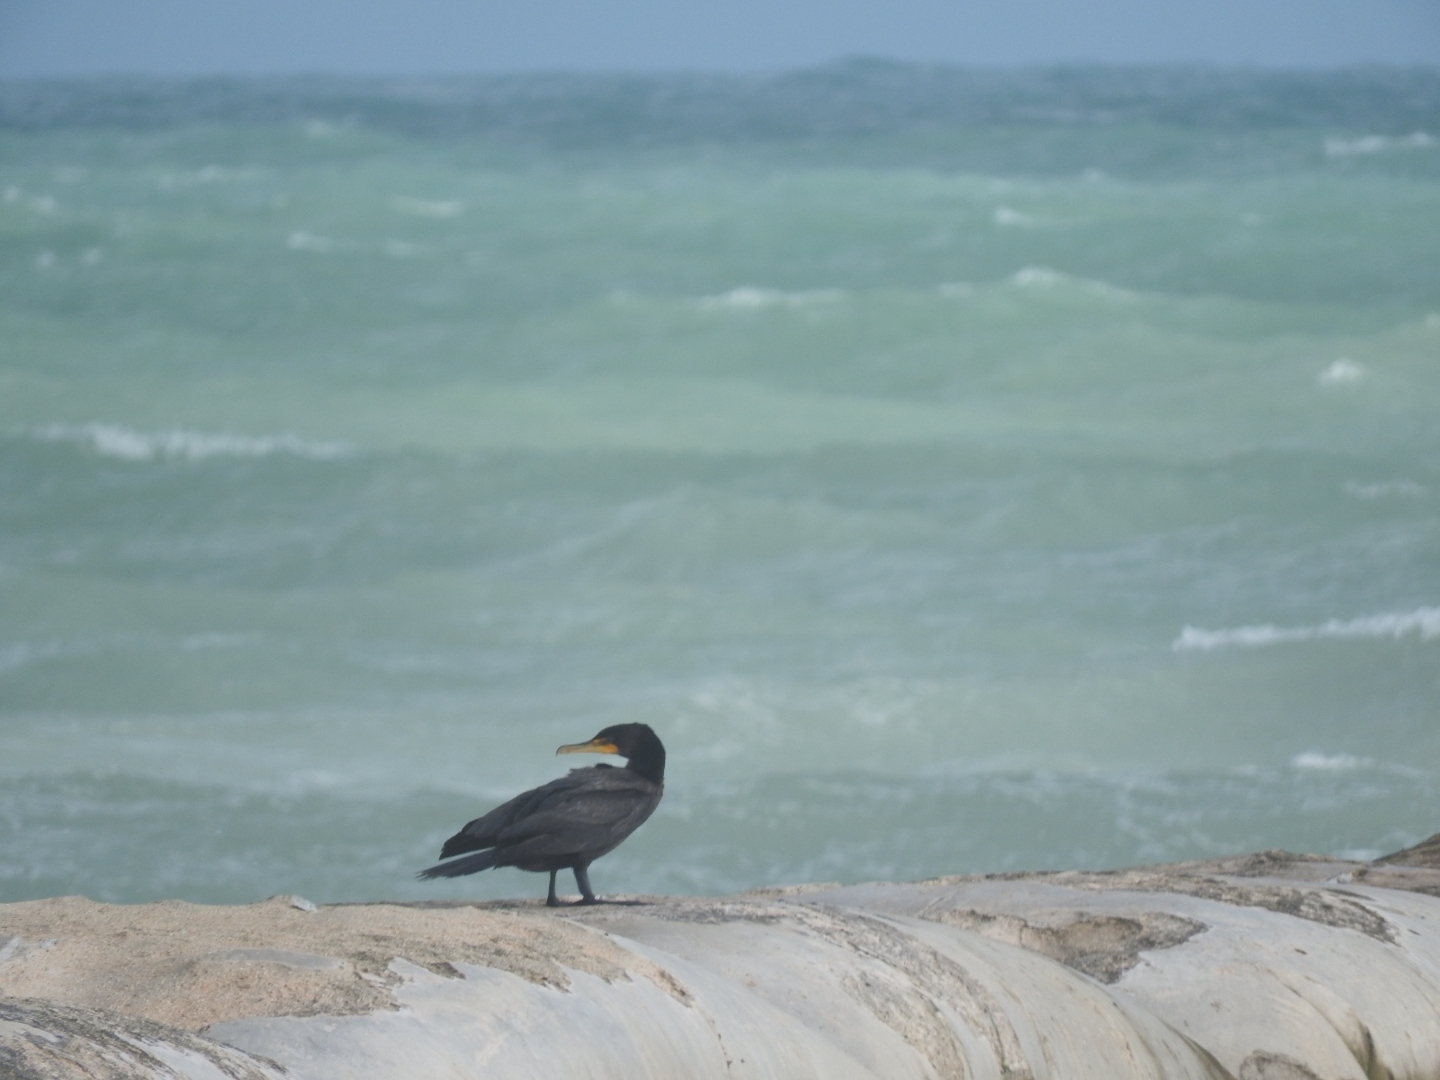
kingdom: Animalia
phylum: Chordata
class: Aves
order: Suliformes
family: Phalacrocoracidae
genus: Phalacrocorax
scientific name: Phalacrocorax auritus
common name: Double-crested cormorant
